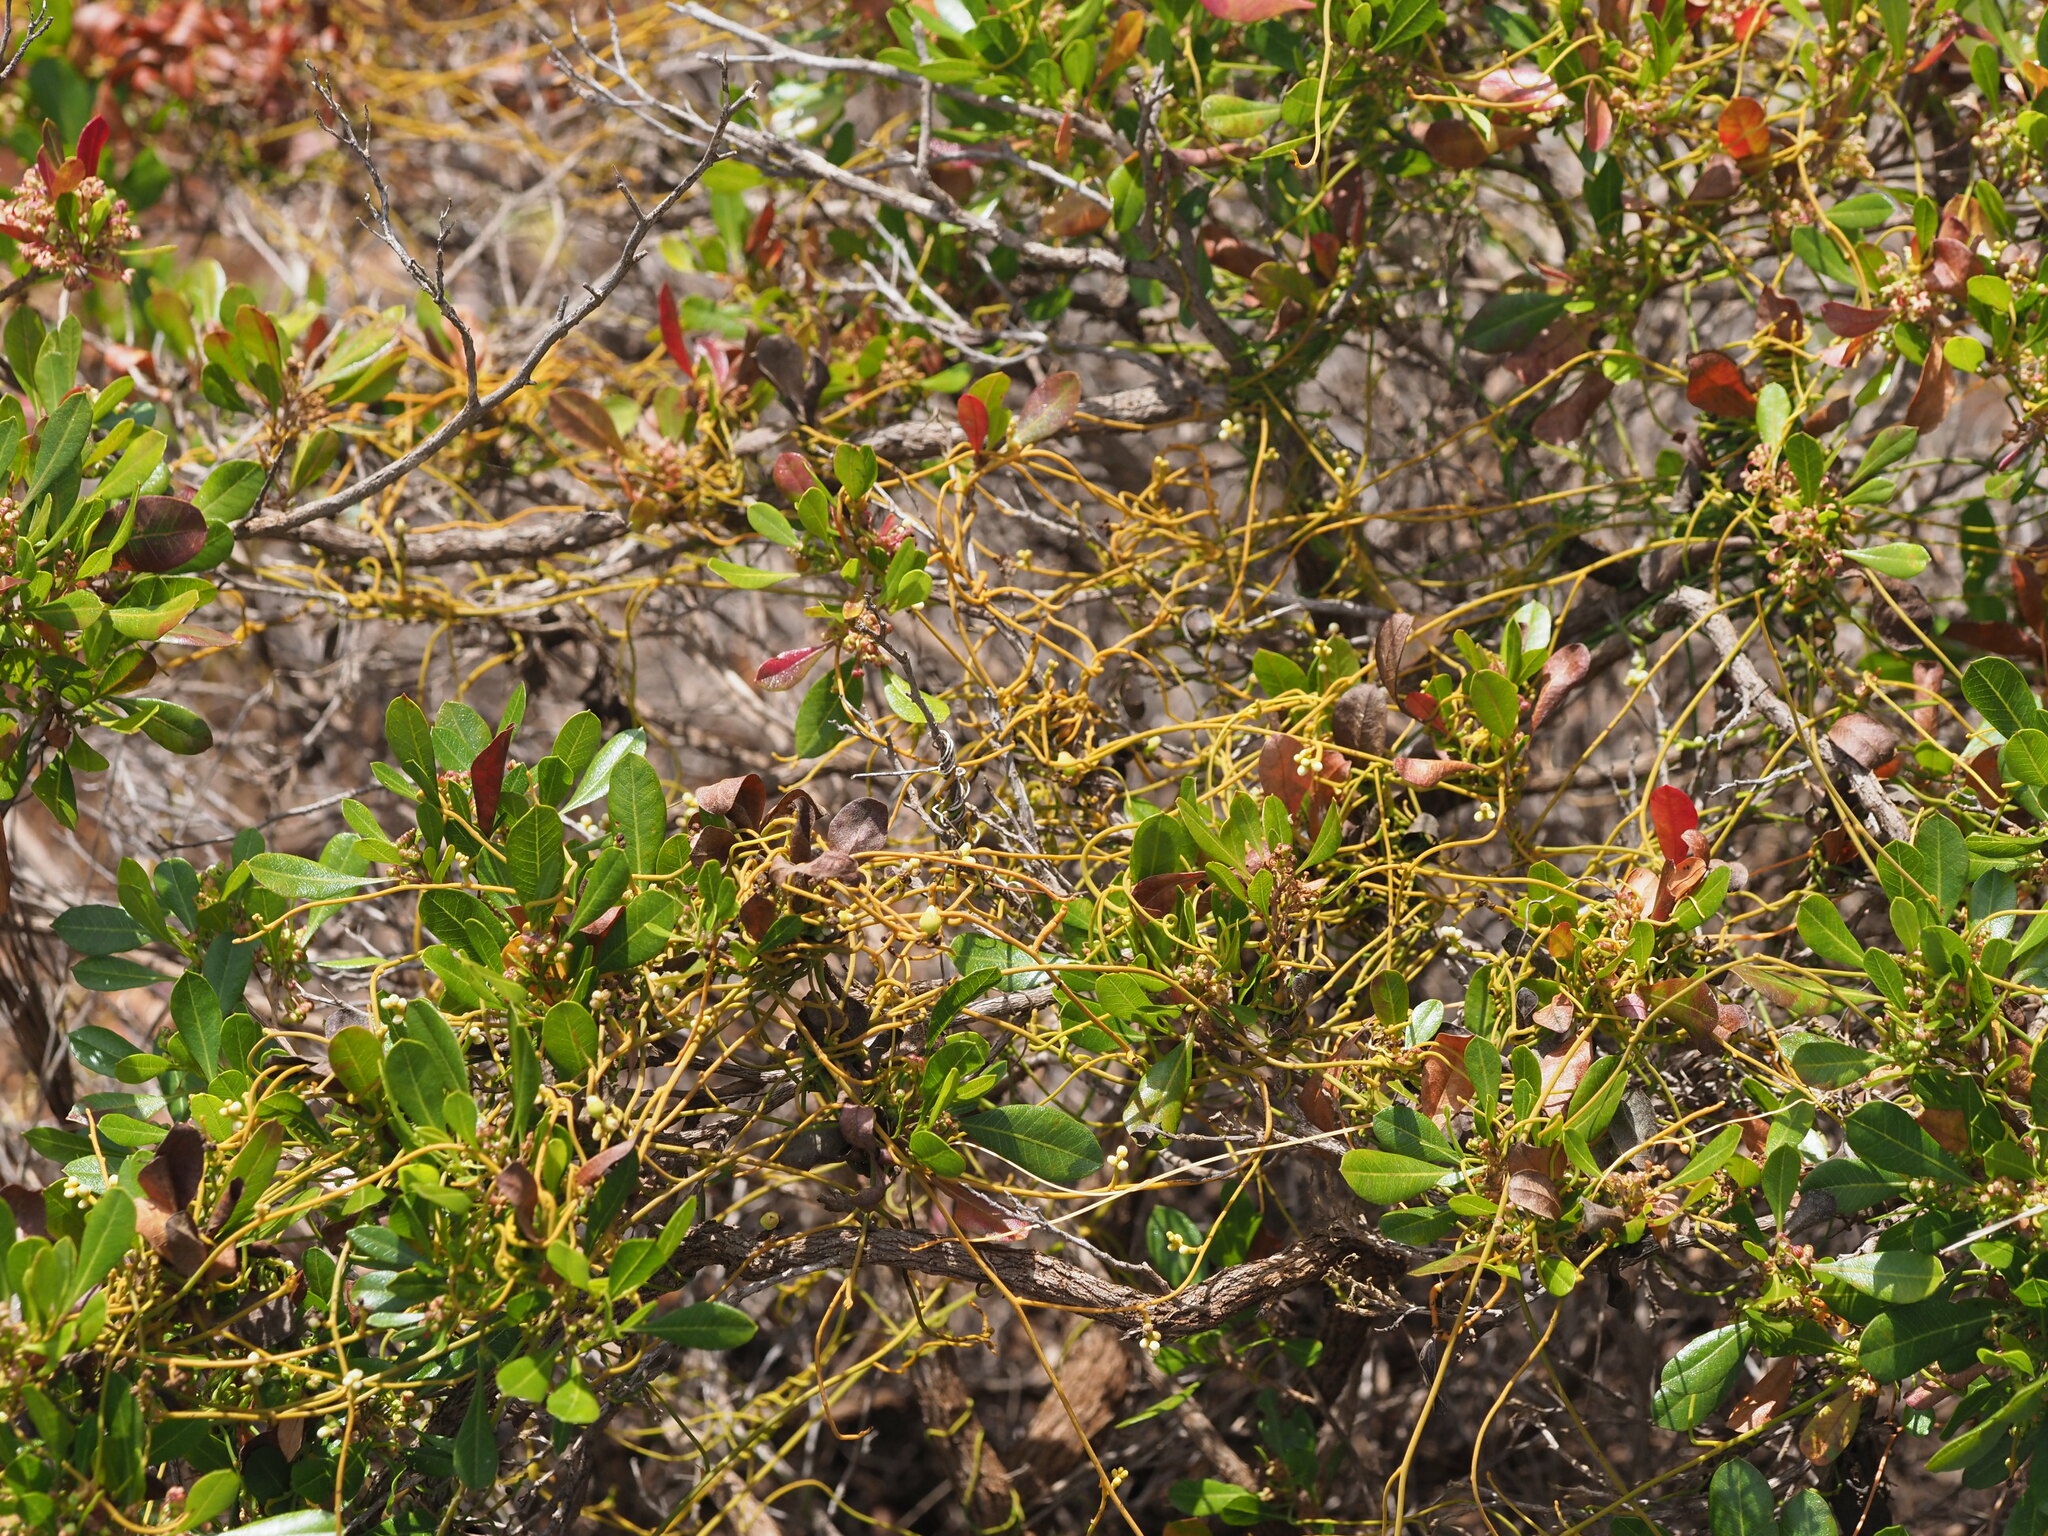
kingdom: Plantae
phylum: Tracheophyta
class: Magnoliopsida
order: Laurales
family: Lauraceae
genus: Cassytha
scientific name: Cassytha filiformis
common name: Dodder-laurel
